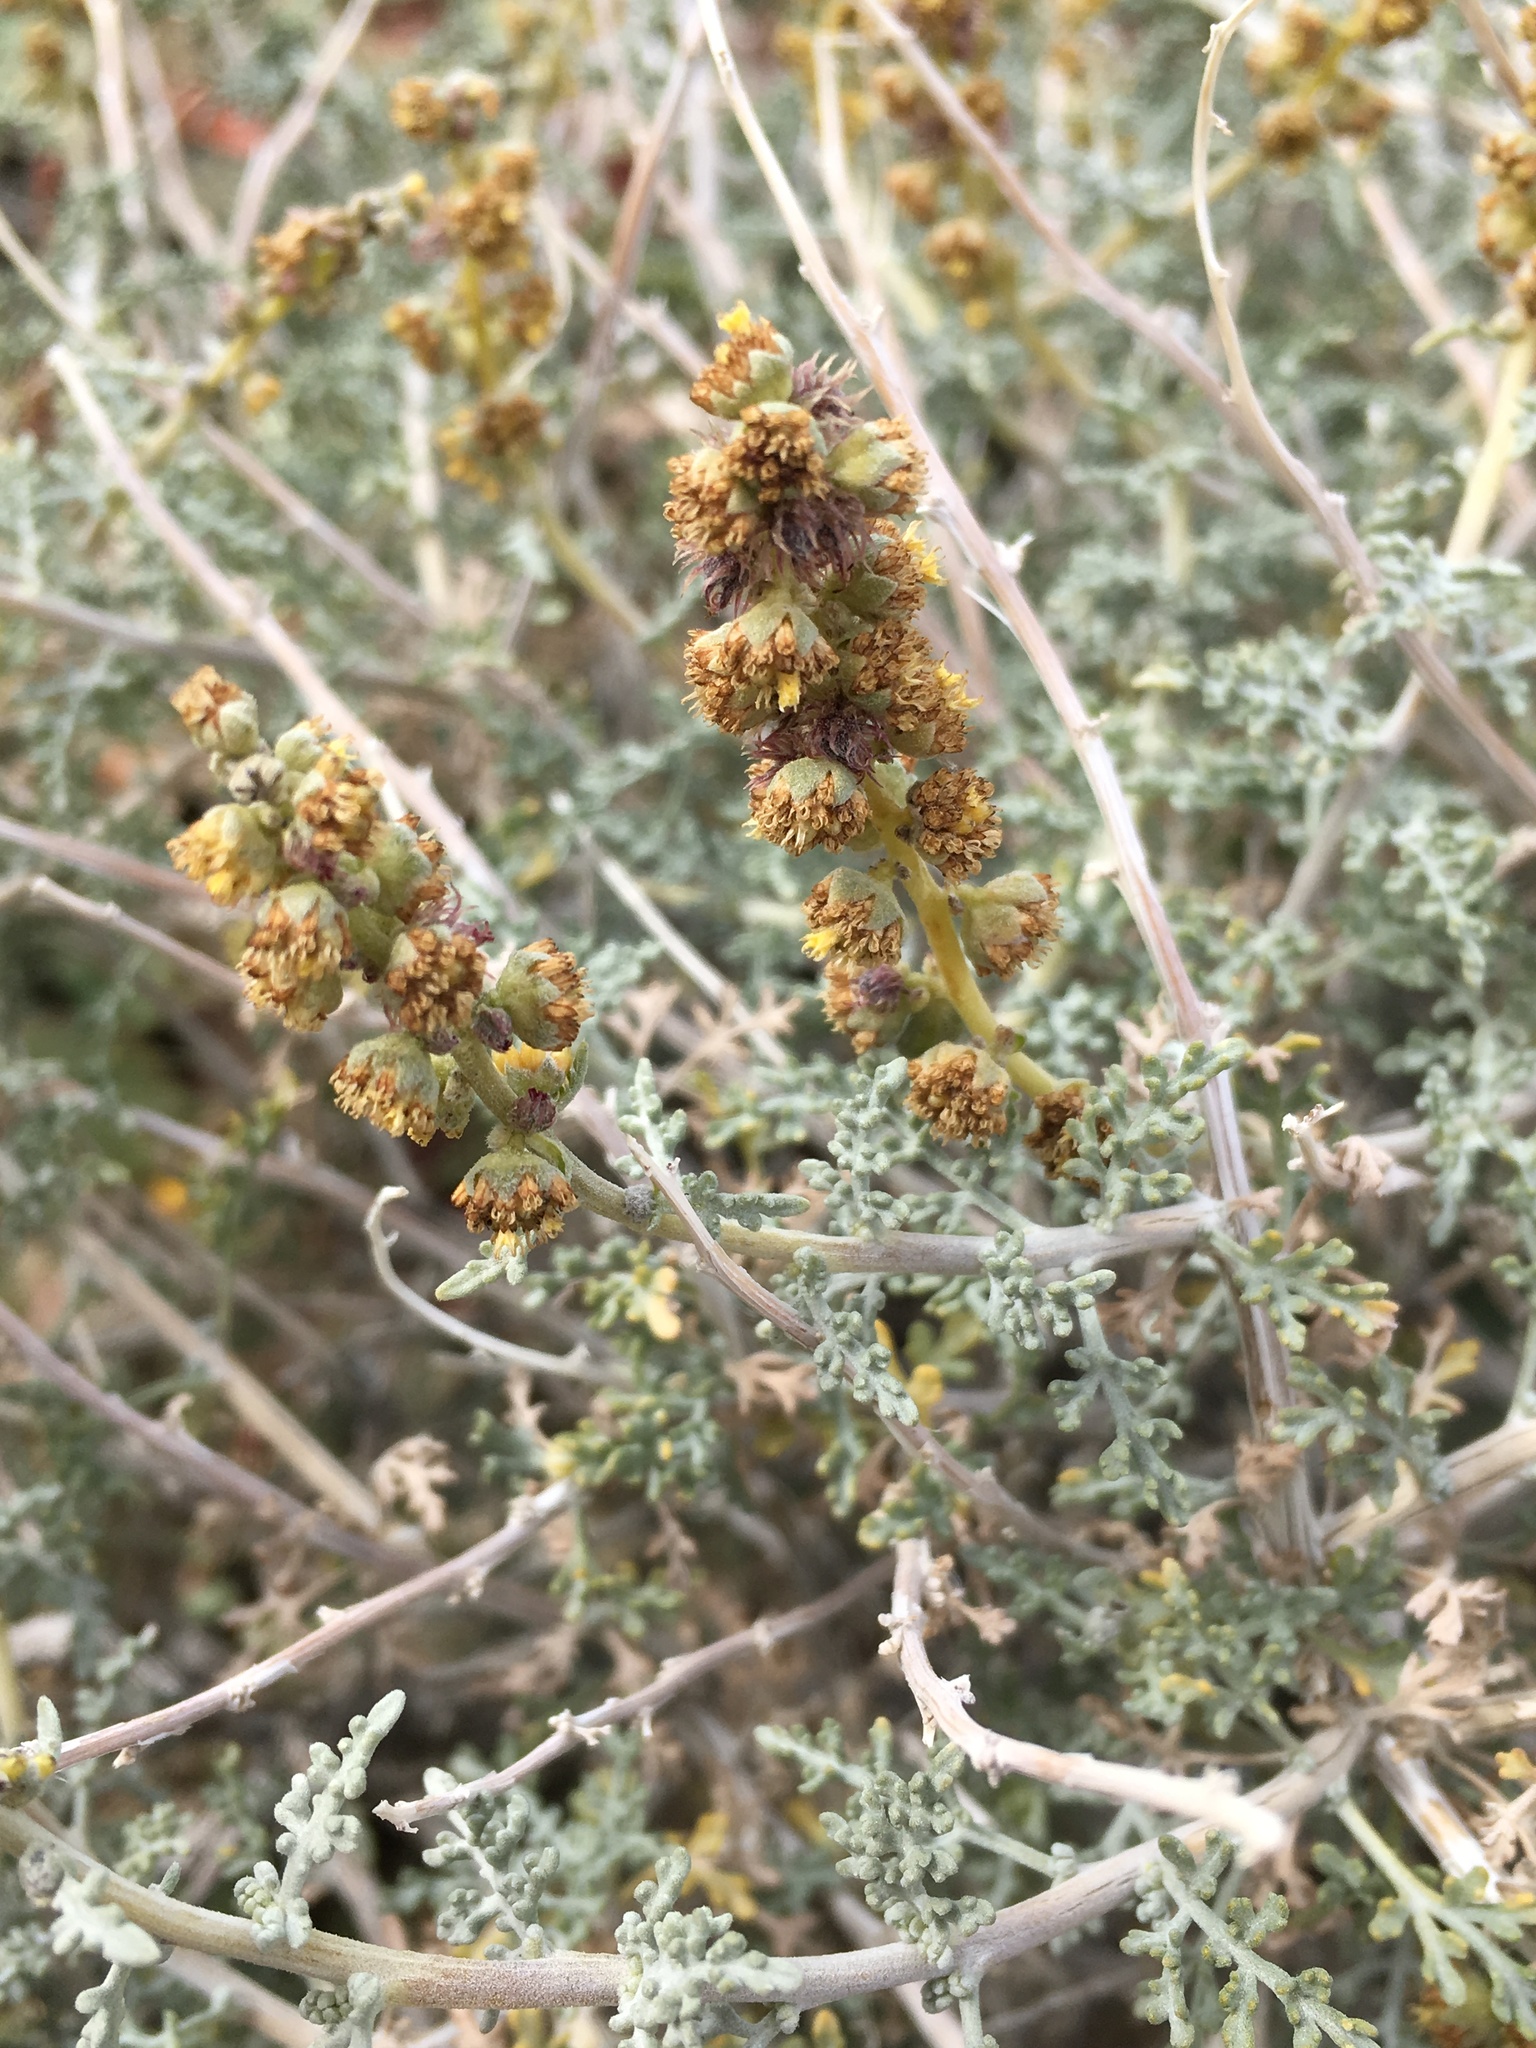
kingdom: Plantae
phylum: Tracheophyta
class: Magnoliopsida
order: Asterales
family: Asteraceae
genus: Ambrosia
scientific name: Ambrosia dumosa
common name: Bur-sage
